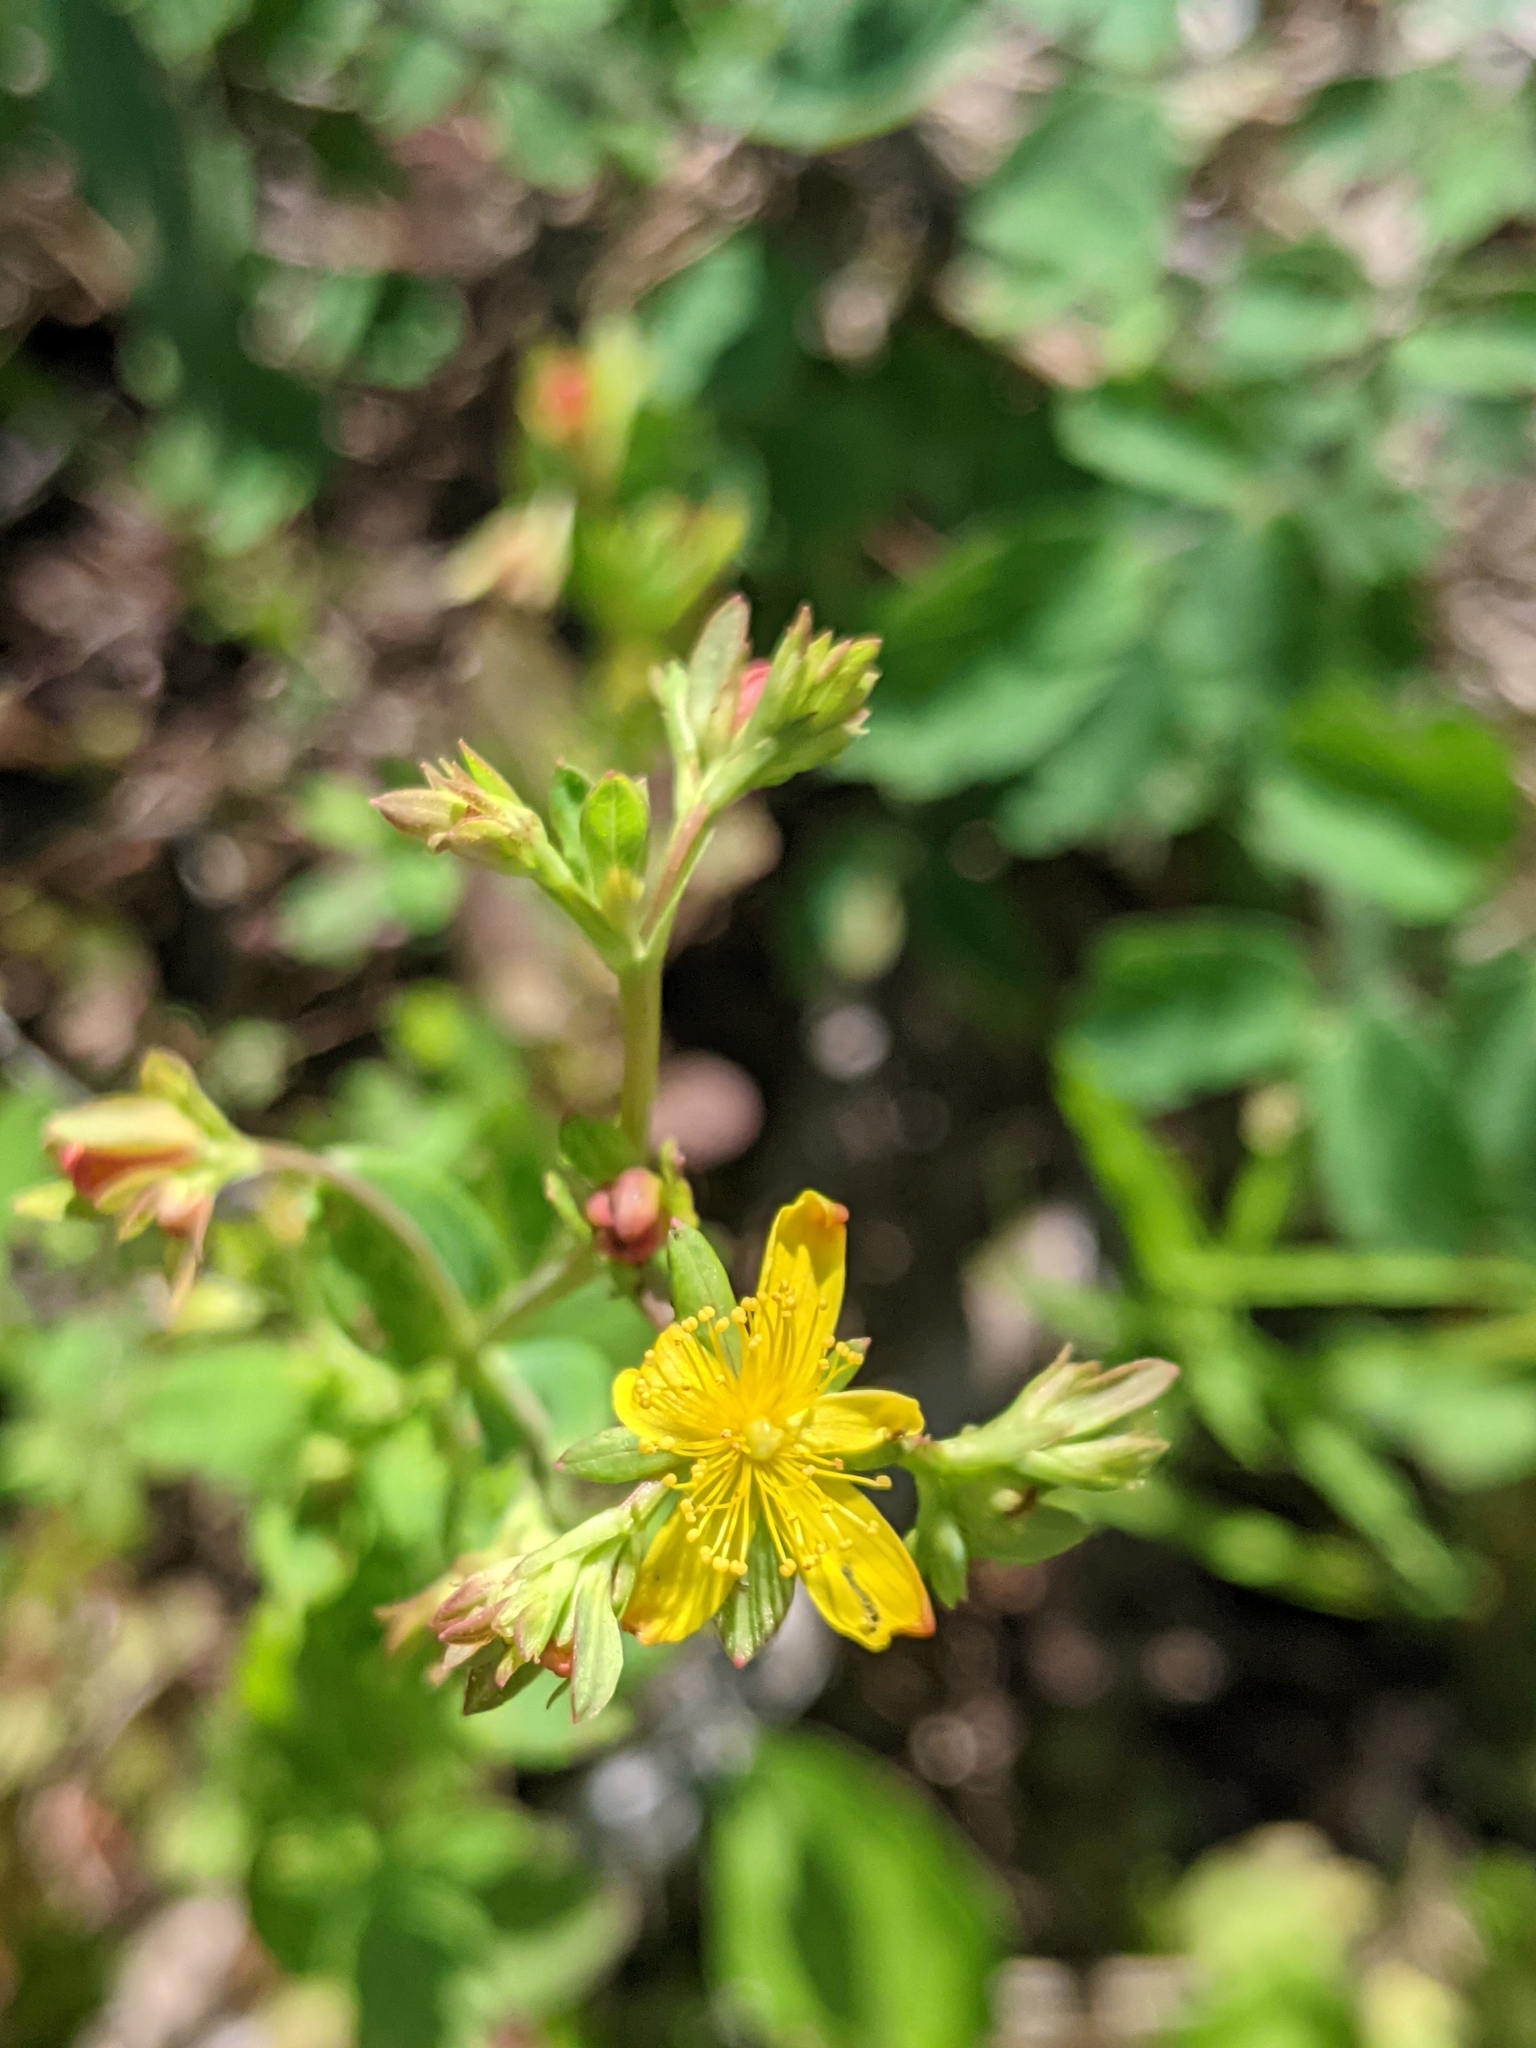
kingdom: Plantae
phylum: Tracheophyta
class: Magnoliopsida
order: Malpighiales
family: Hypericaceae
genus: Hypericum
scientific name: Hypericum ellipticum
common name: Elliptic st. john's-wort
